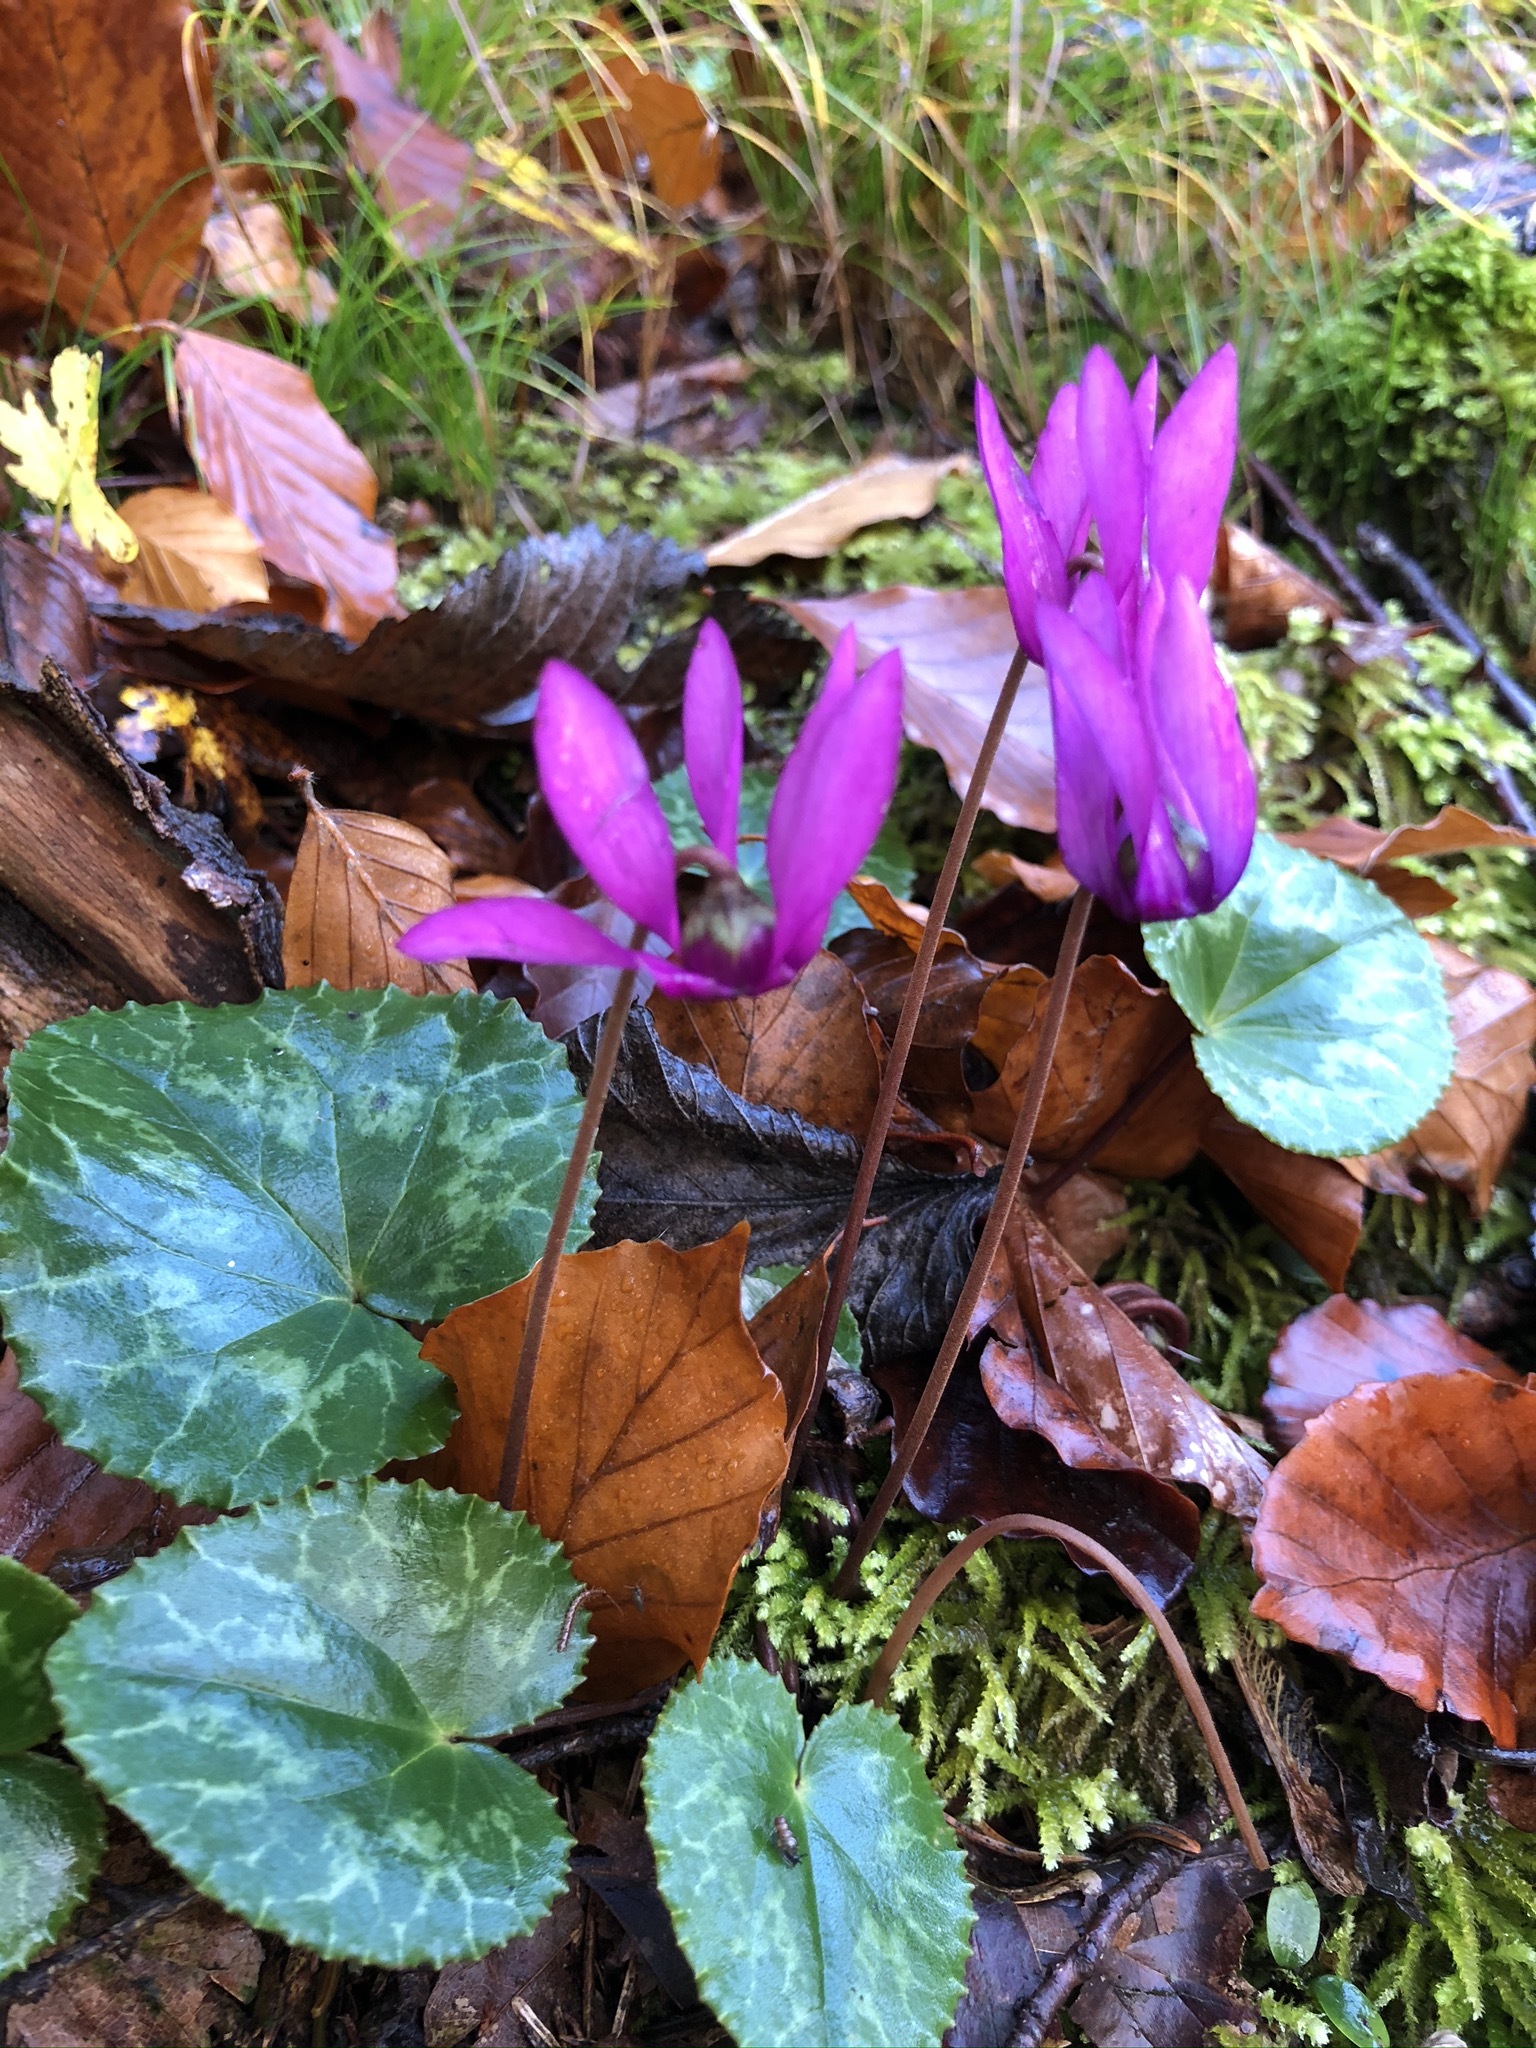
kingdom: Plantae
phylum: Tracheophyta
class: Magnoliopsida
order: Ericales
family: Primulaceae
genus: Cyclamen
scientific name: Cyclamen purpurascens
